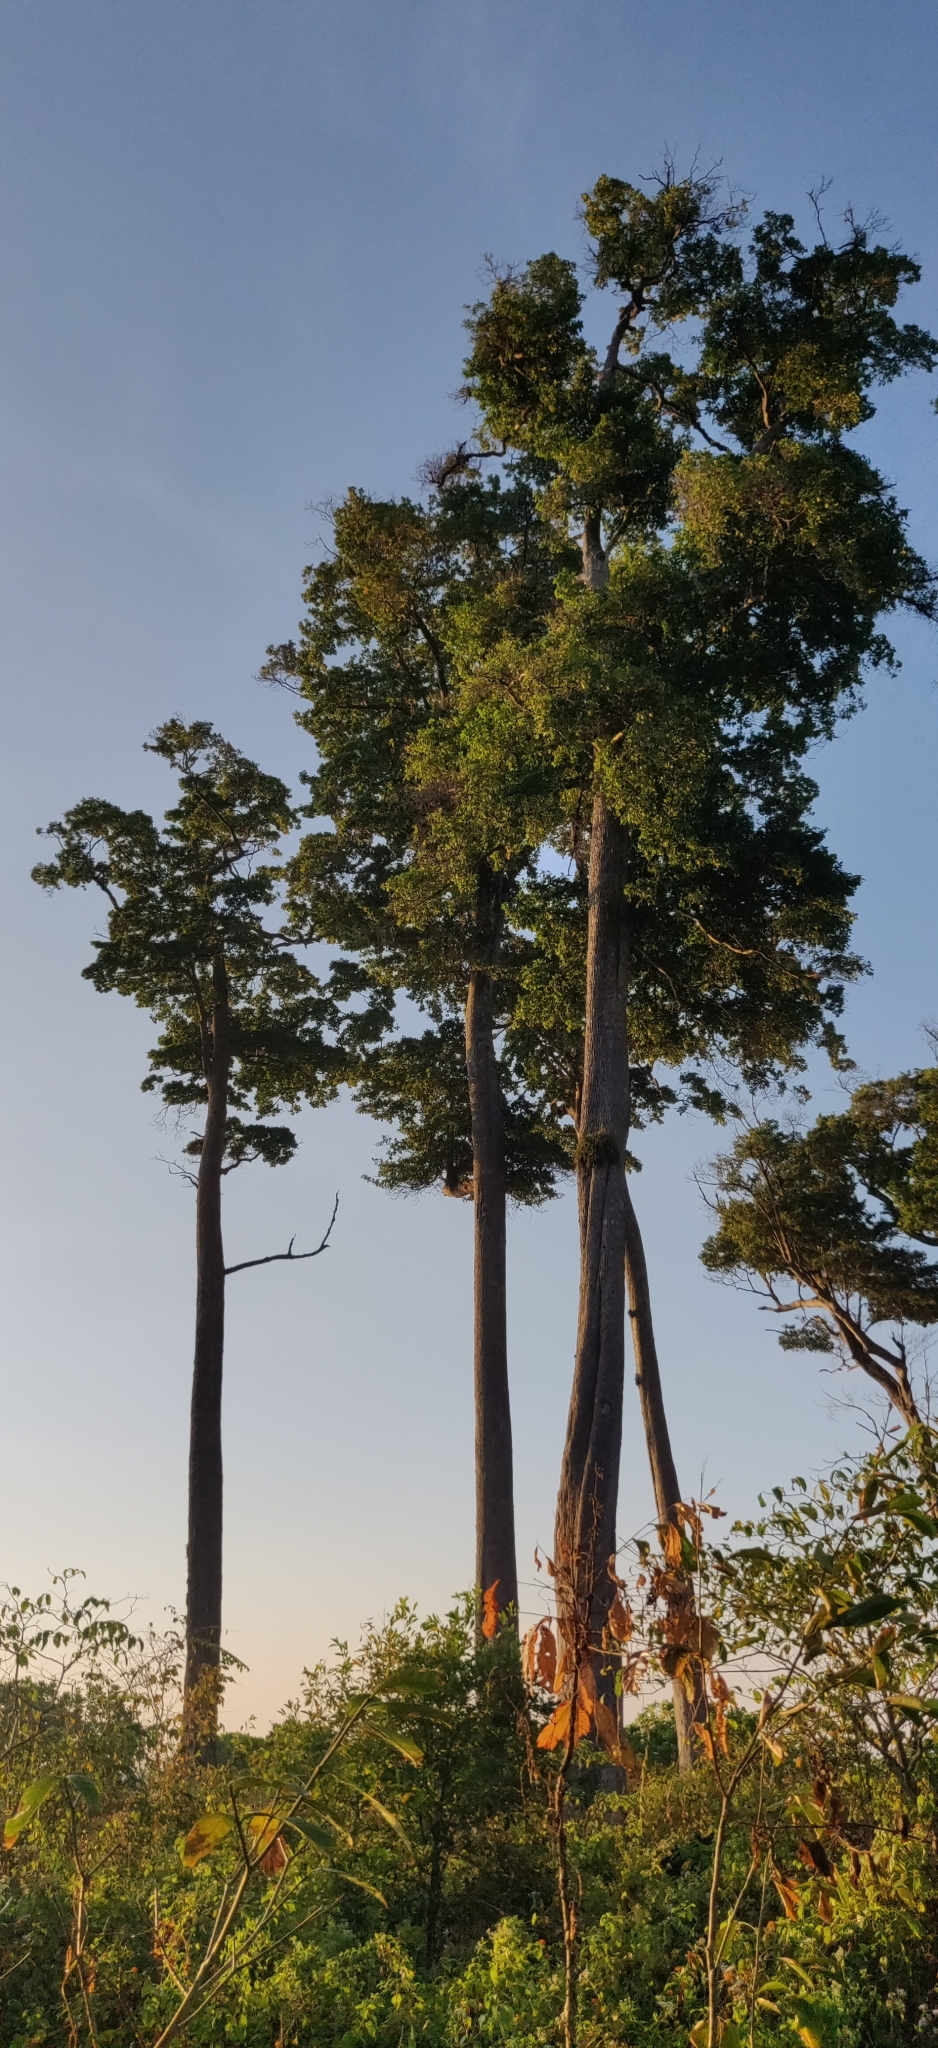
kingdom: Plantae
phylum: Tracheophyta
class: Magnoliopsida
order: Ericales
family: Sapotaceae
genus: Manilkara
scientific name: Manilkara littoralis
